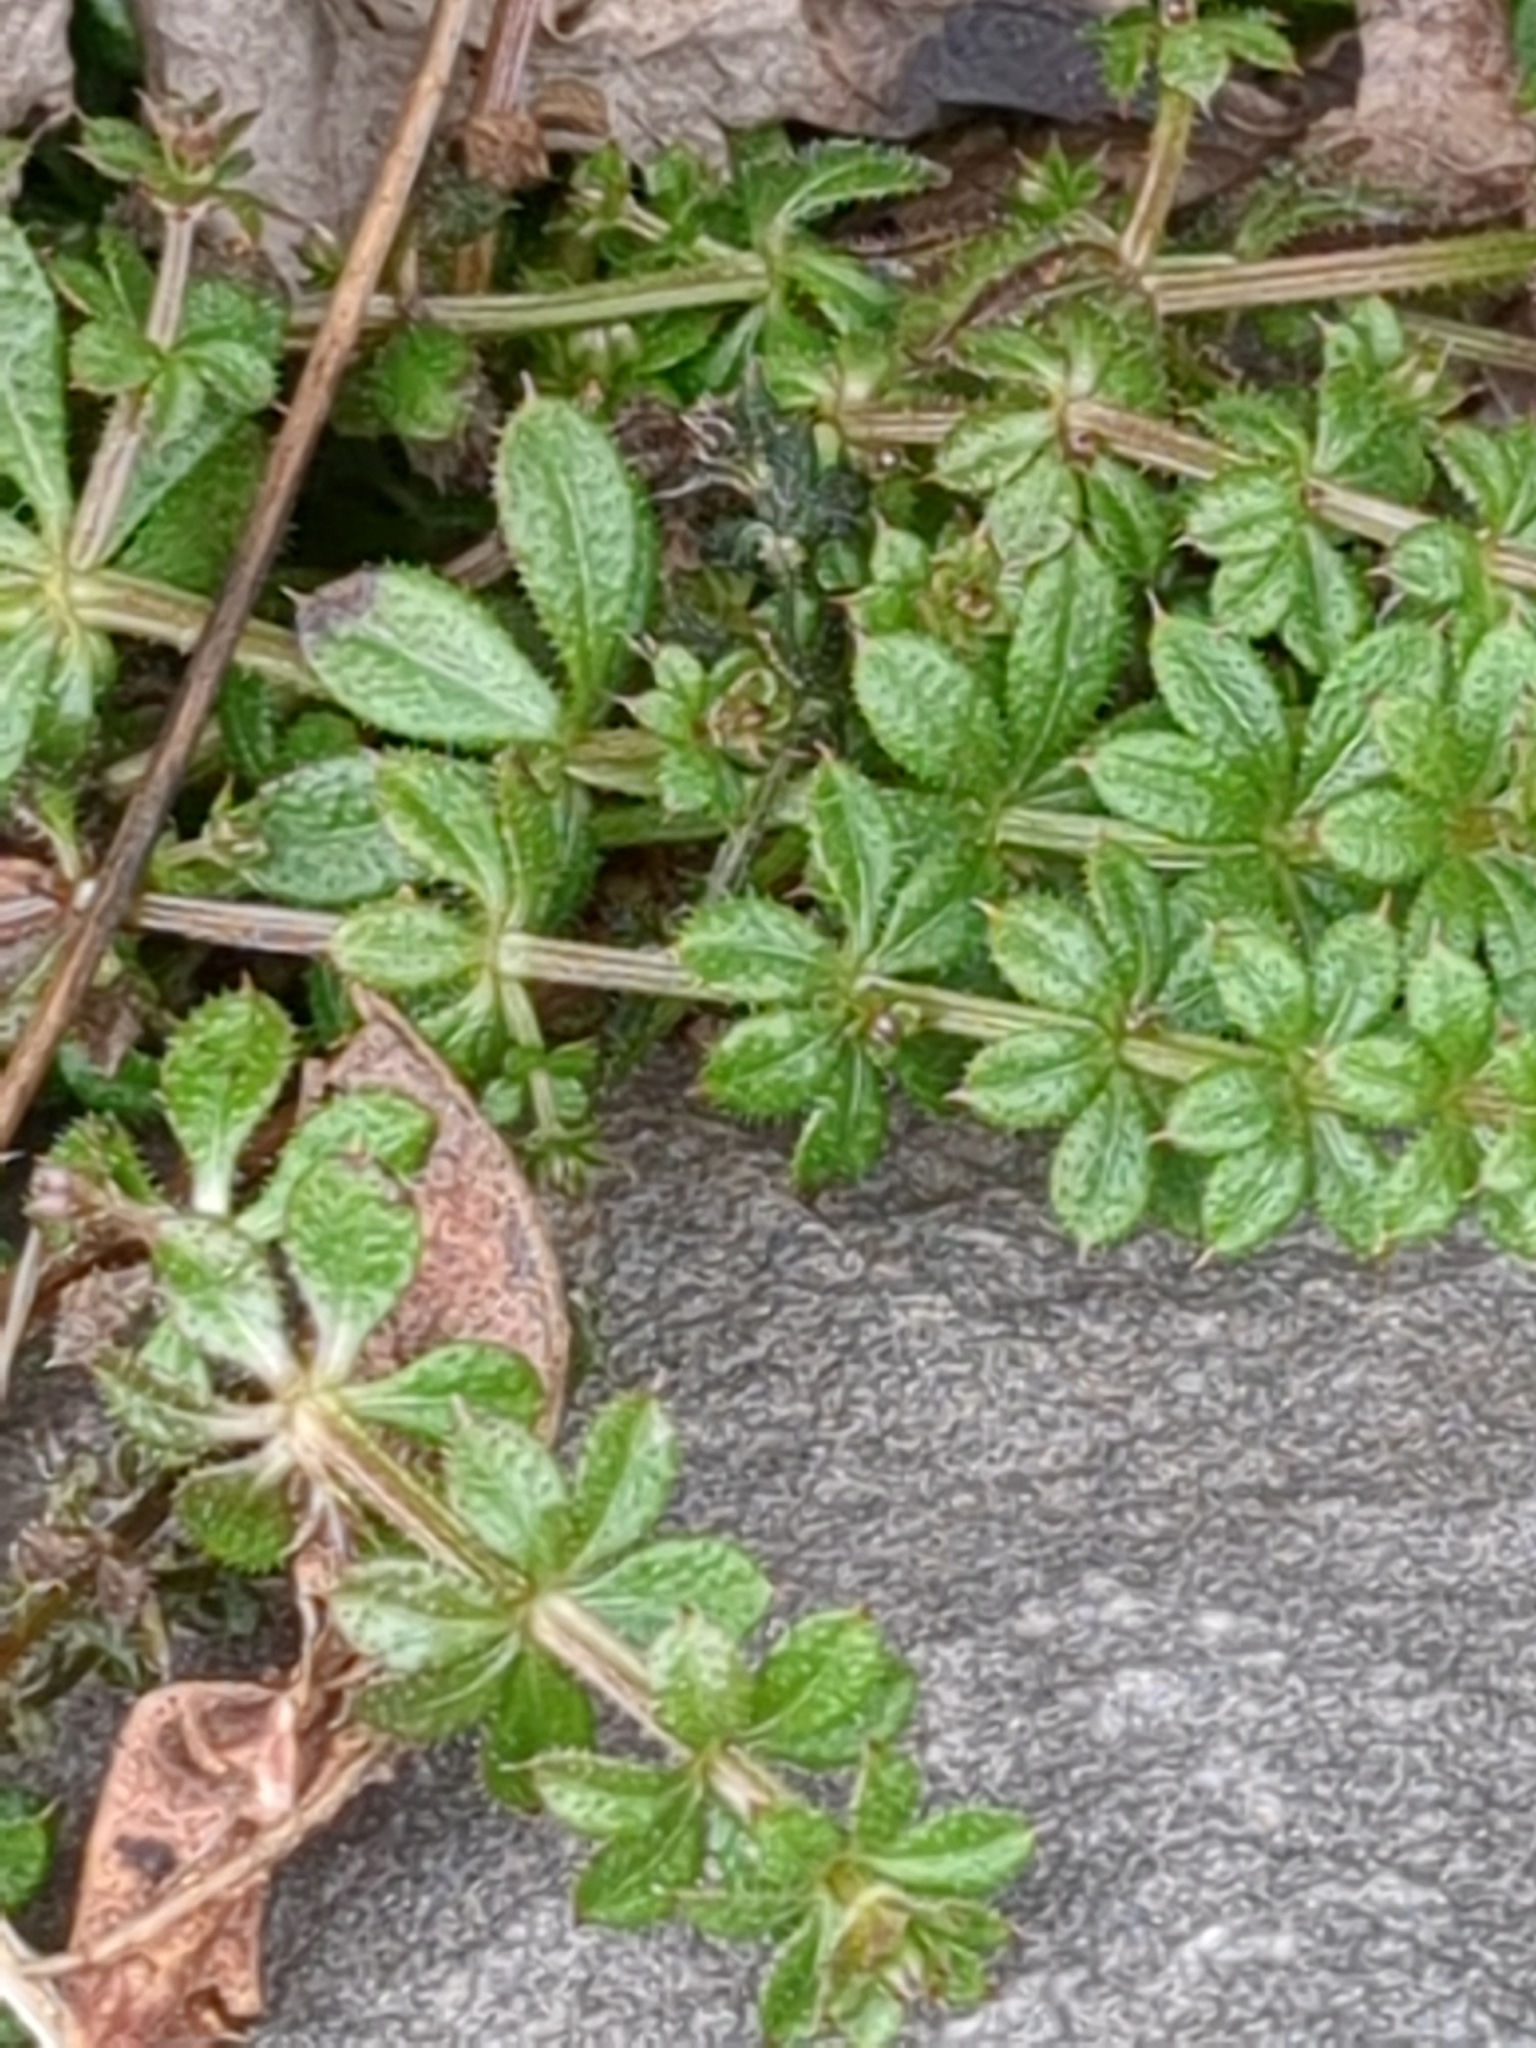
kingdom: Plantae
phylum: Tracheophyta
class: Magnoliopsida
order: Gentianales
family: Rubiaceae
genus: Galium
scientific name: Galium aparine
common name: Cleavers
